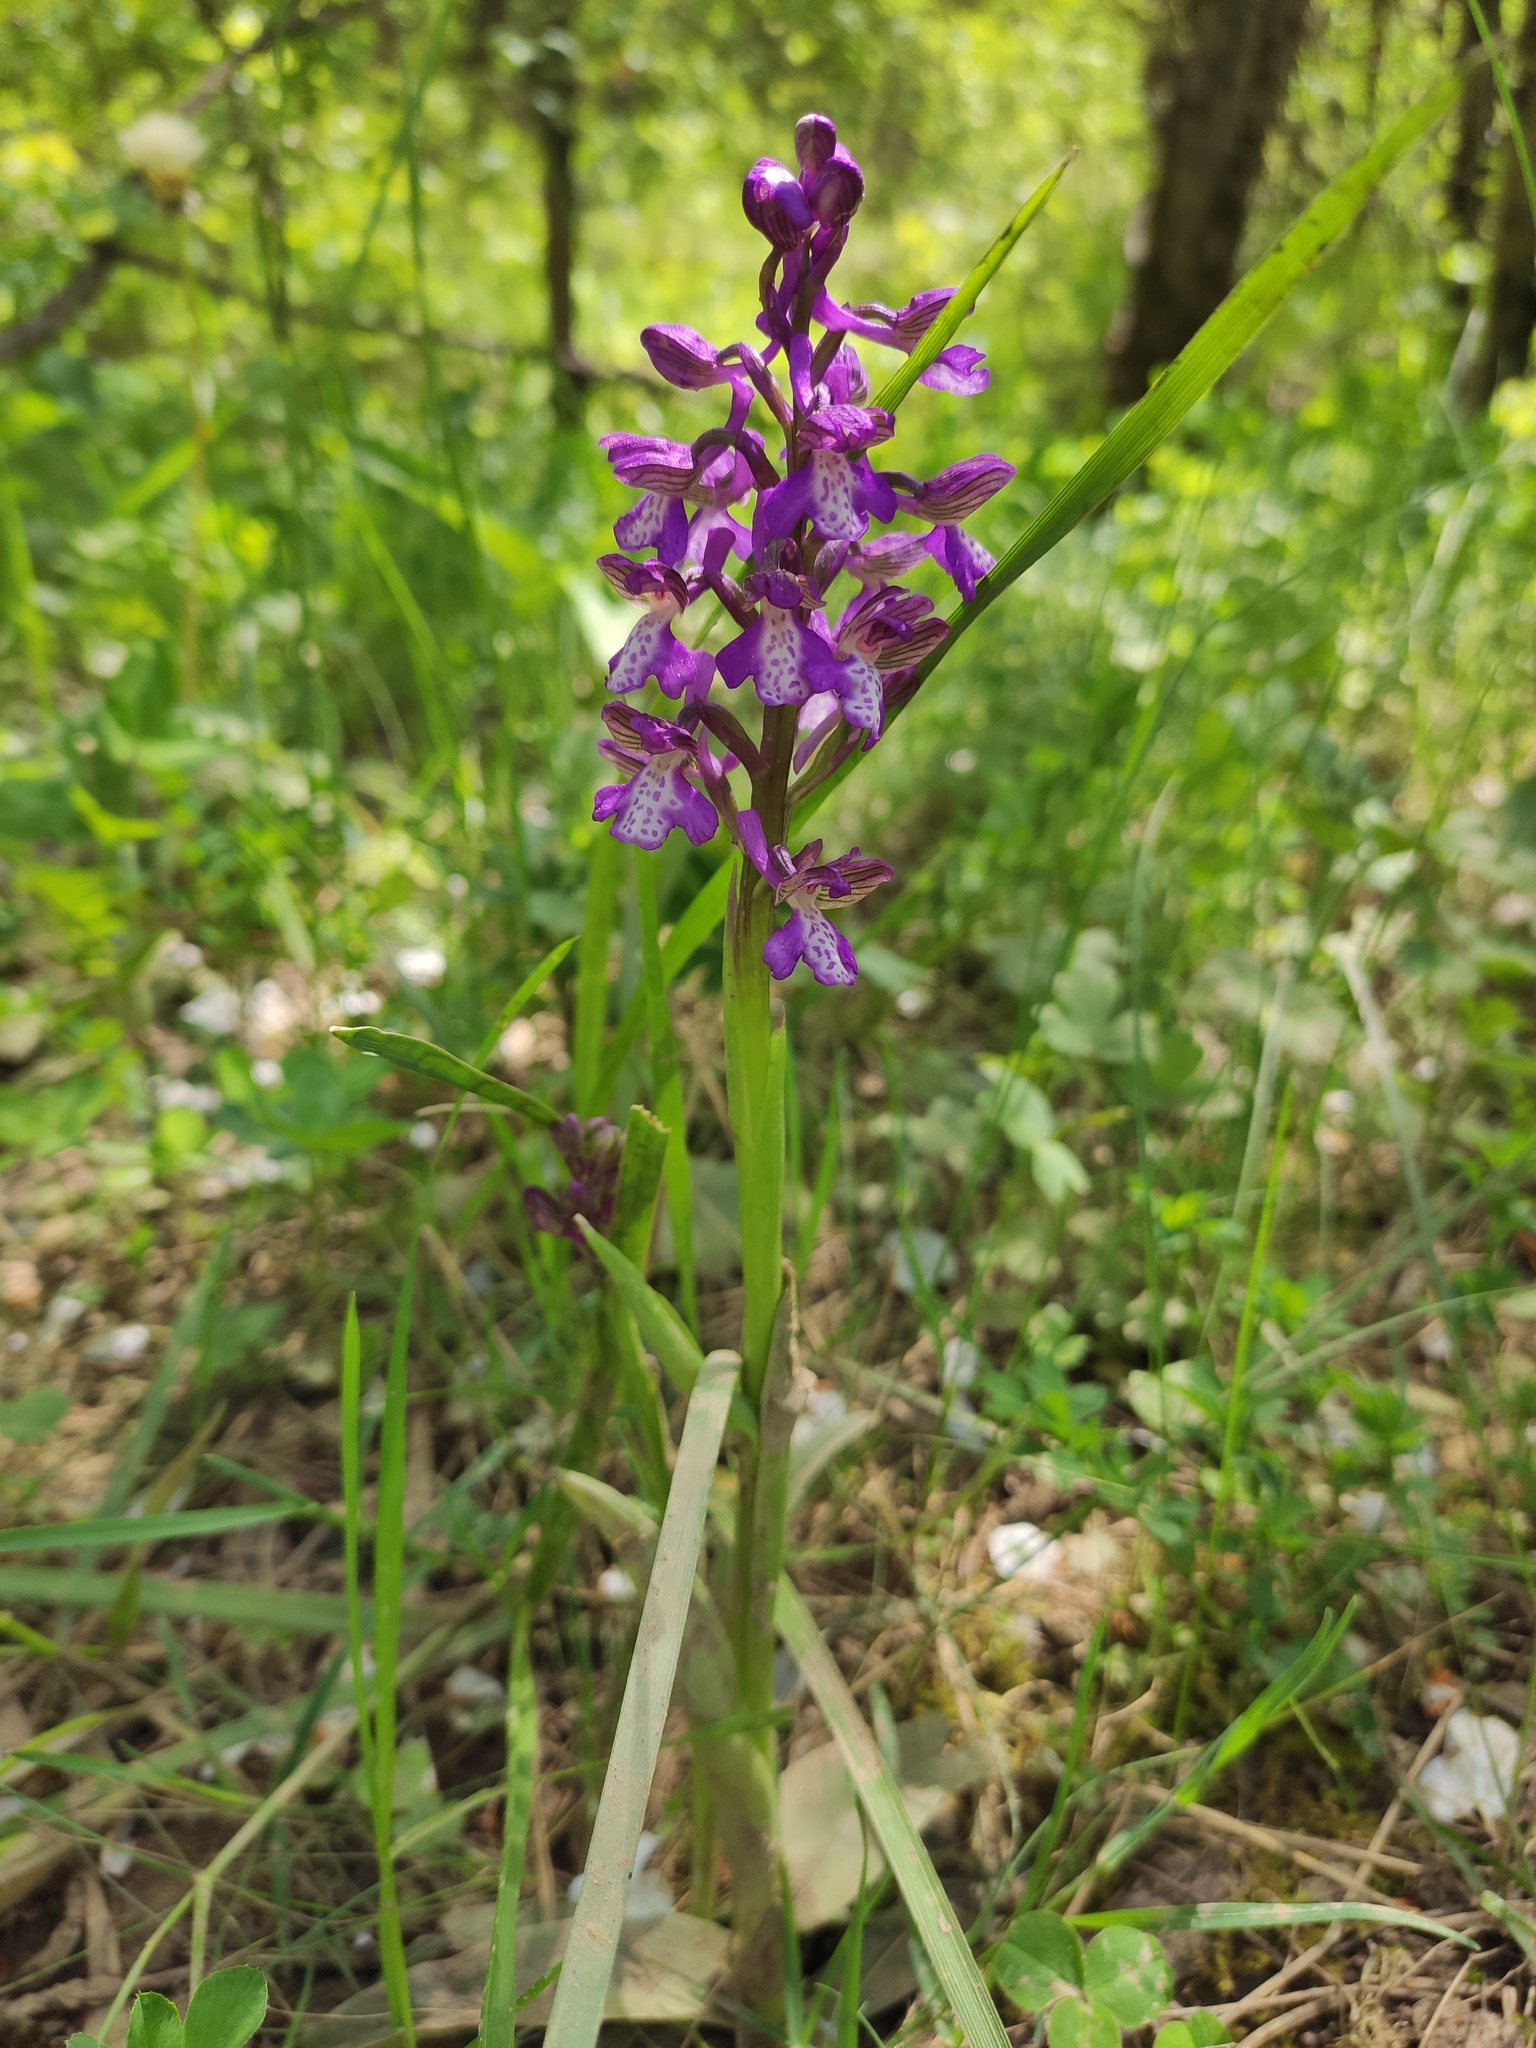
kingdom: Plantae
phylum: Tracheophyta
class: Liliopsida
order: Asparagales
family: Orchidaceae
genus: Anacamptis
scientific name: Anacamptis morio
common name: Green-winged orchid
